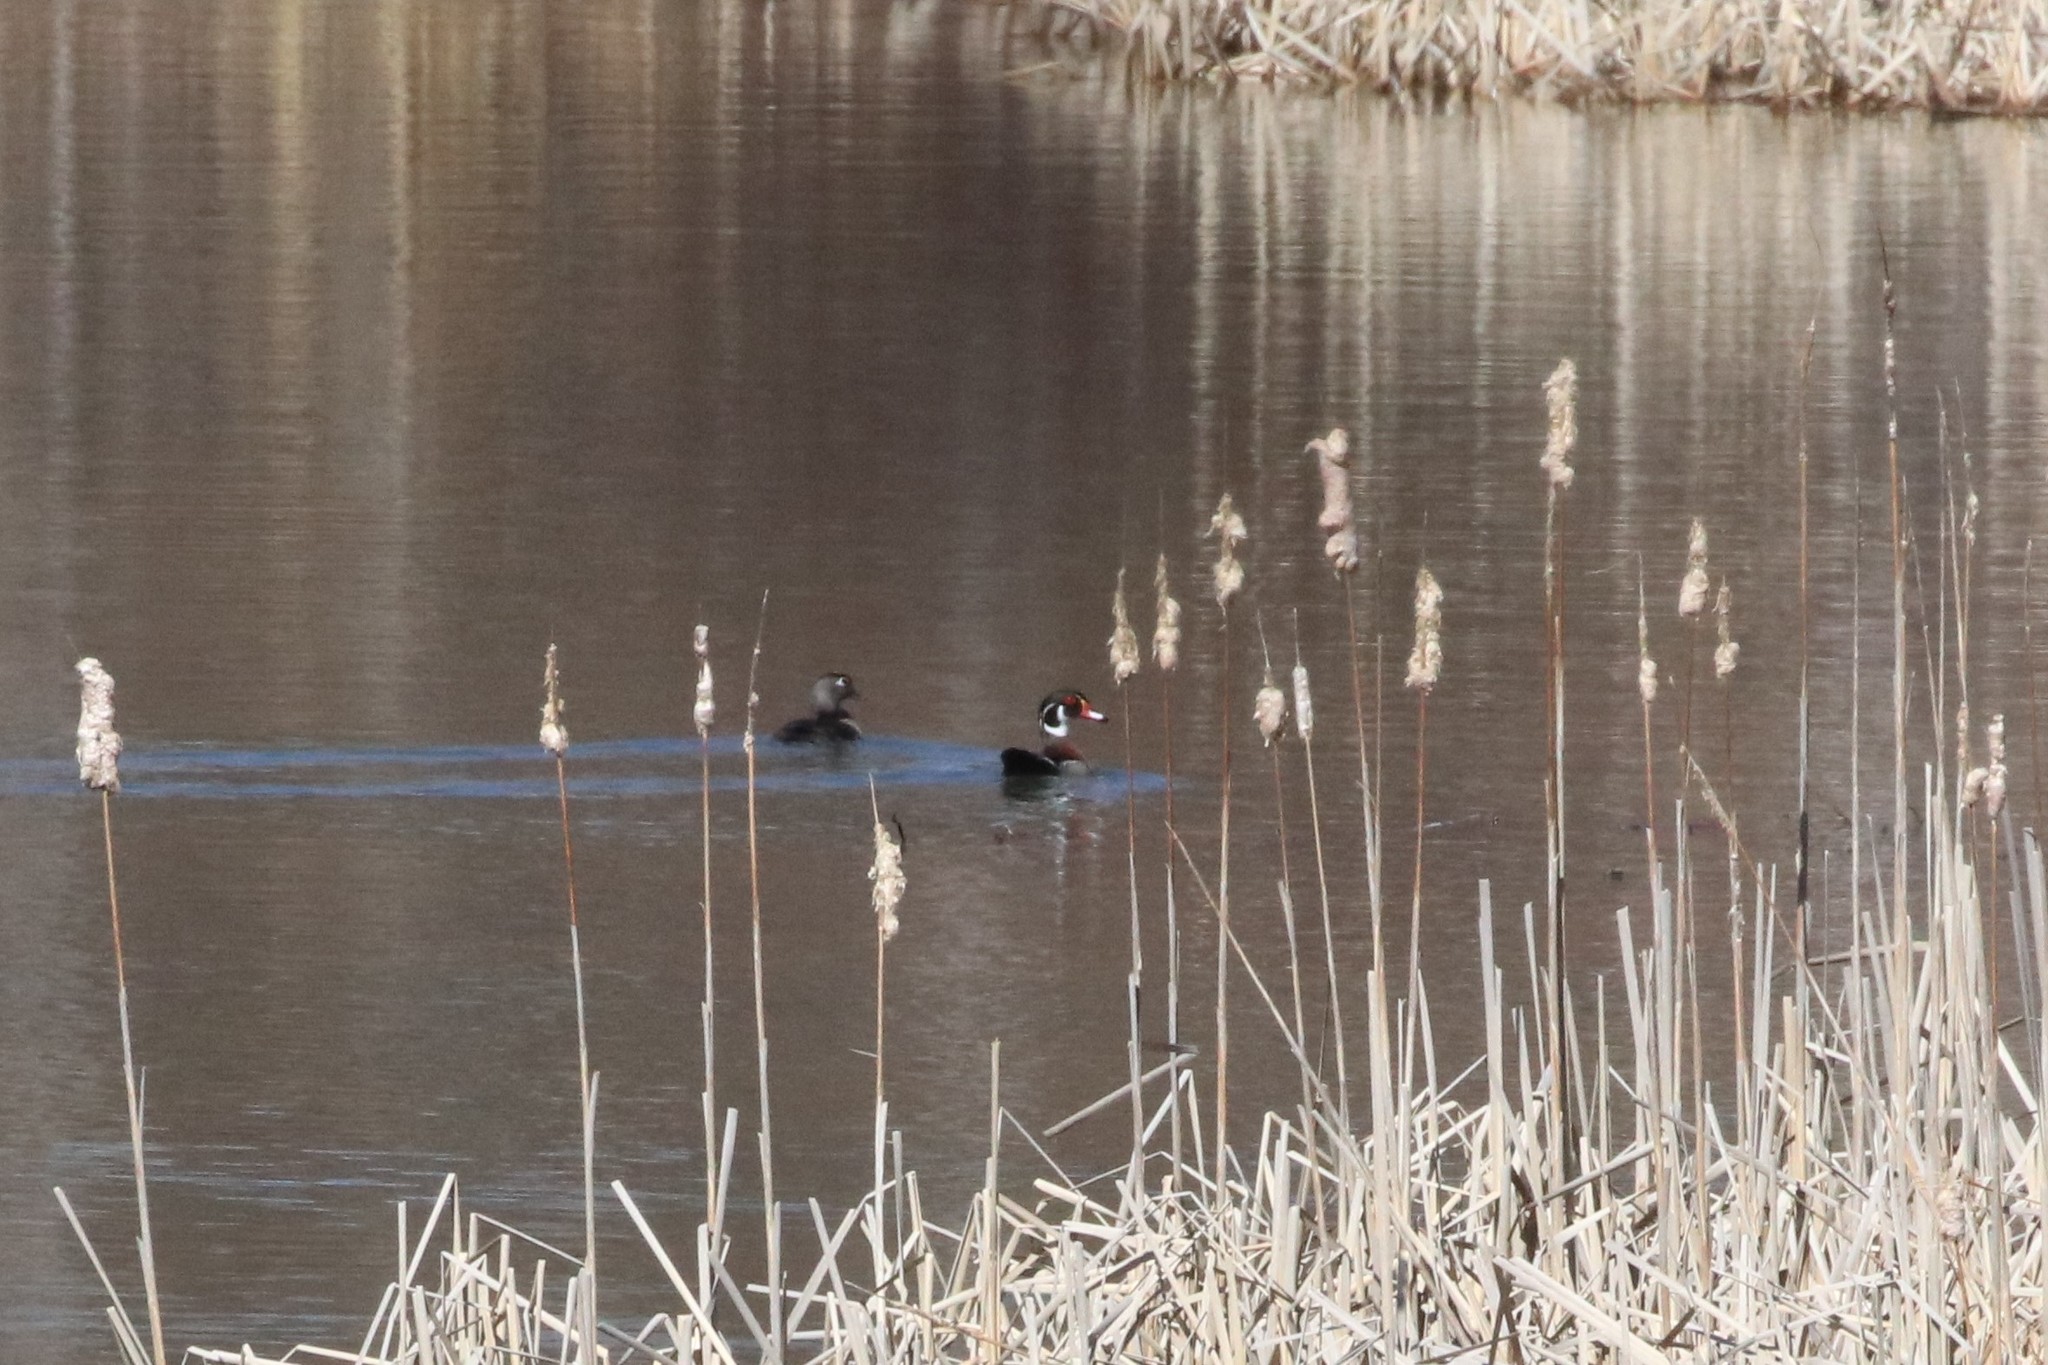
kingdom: Animalia
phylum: Chordata
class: Aves
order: Anseriformes
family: Anatidae
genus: Aix
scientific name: Aix sponsa
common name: Wood duck
